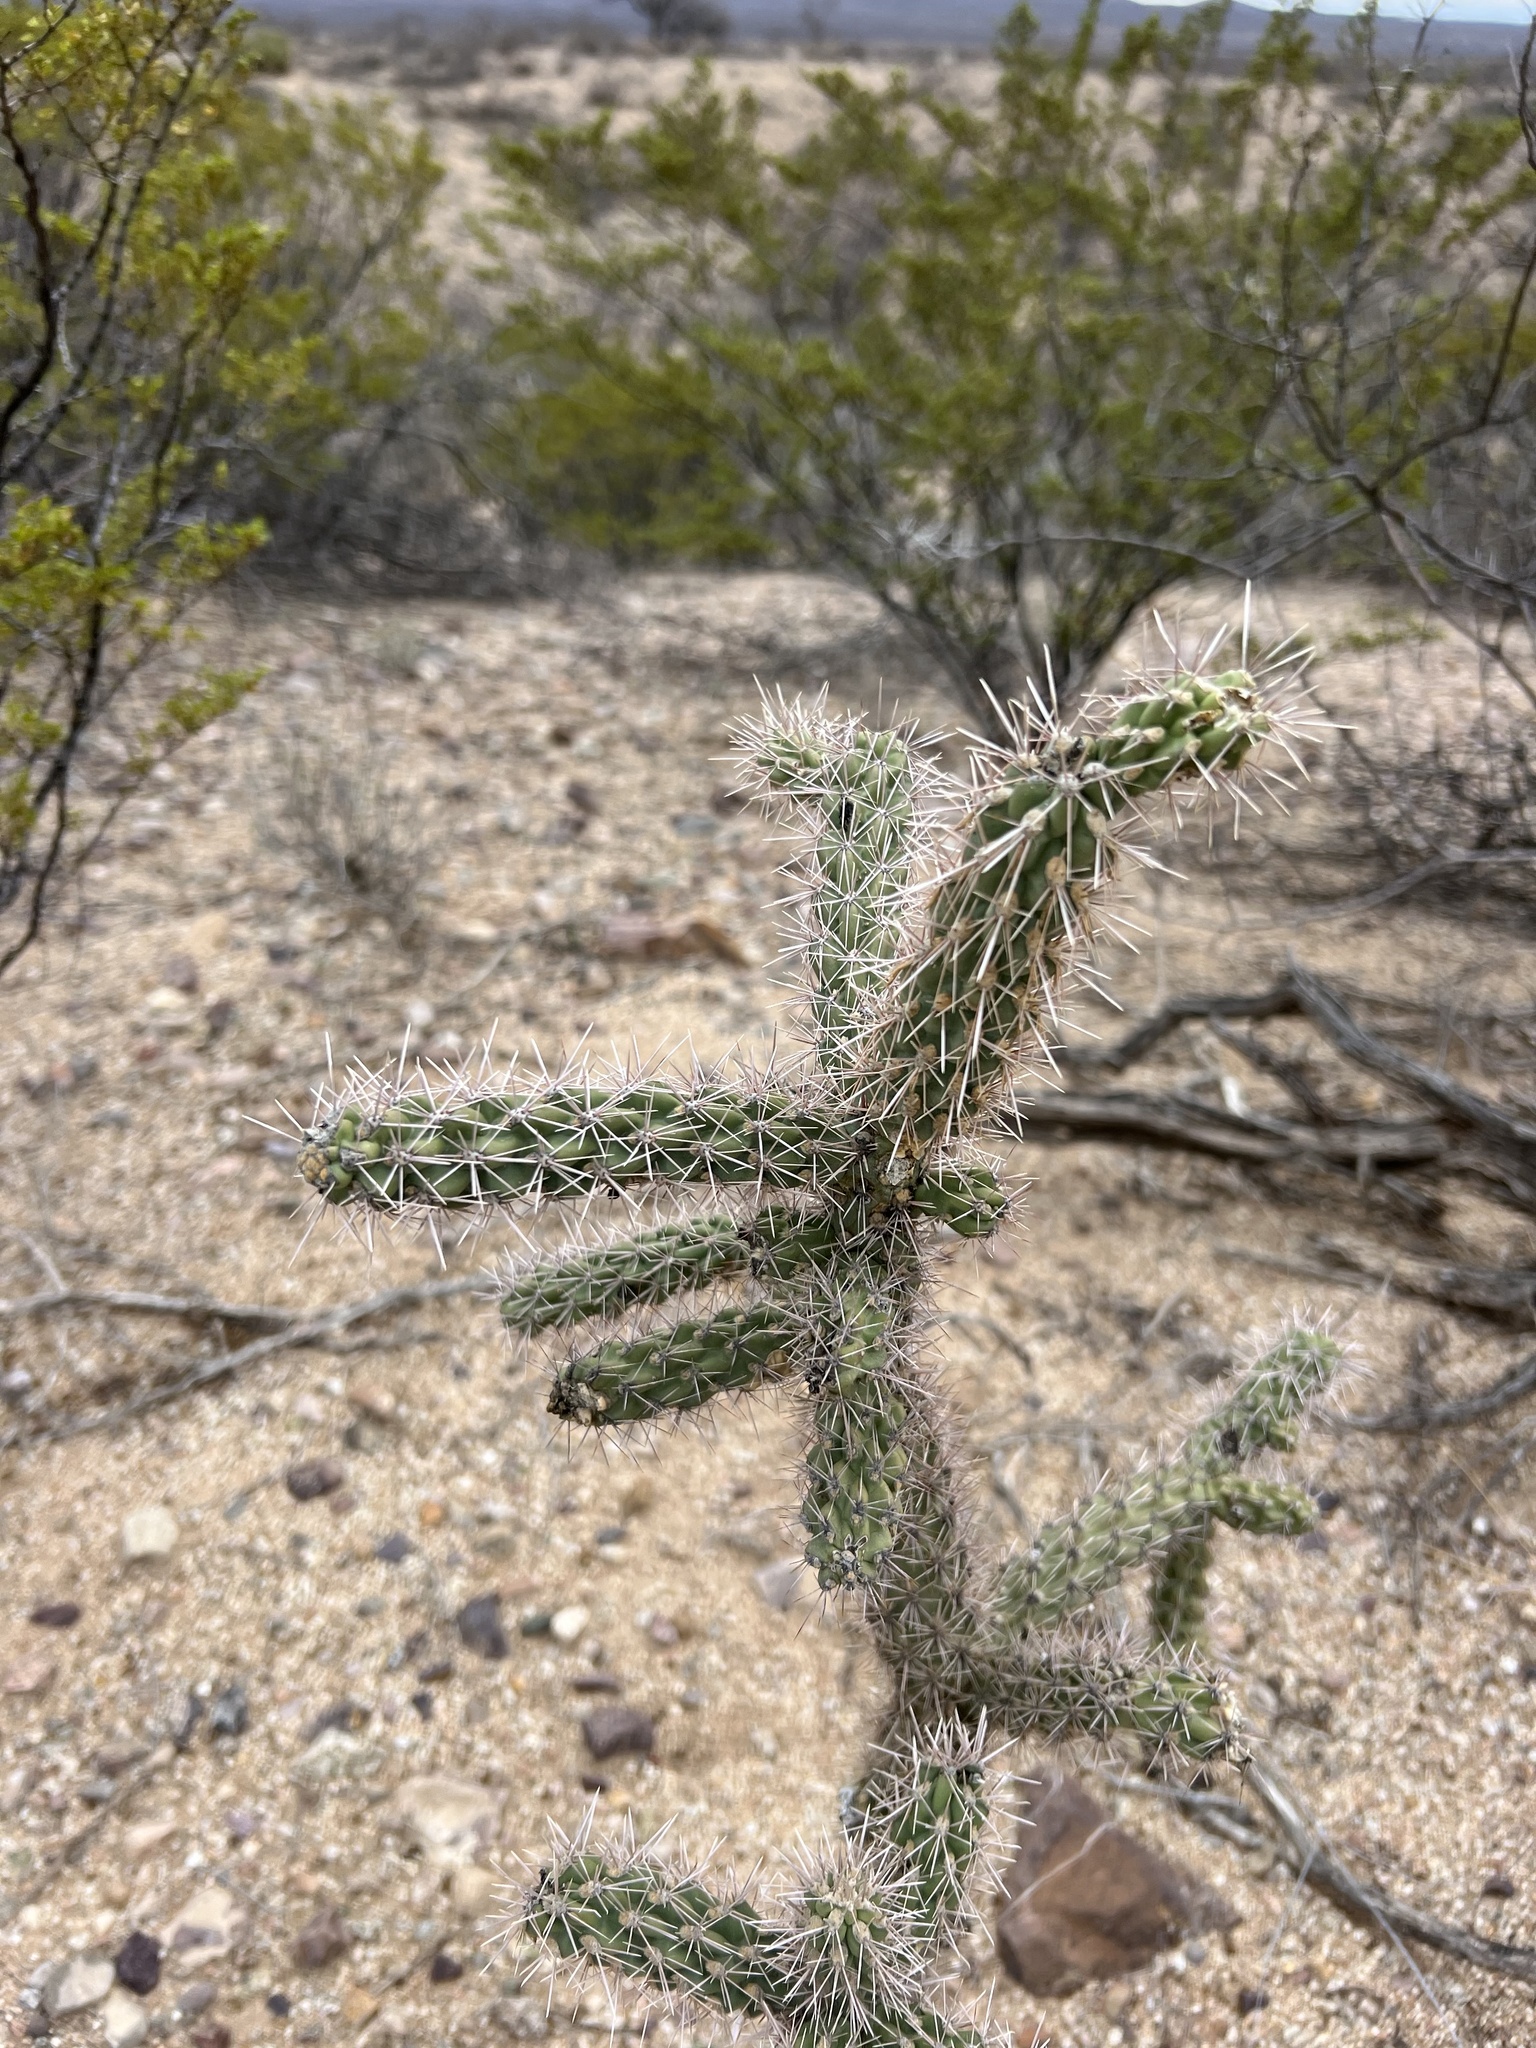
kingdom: Plantae
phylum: Tracheophyta
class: Magnoliopsida
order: Caryophyllales
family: Cactaceae
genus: Cylindropuntia
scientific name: Cylindropuntia imbricata
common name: Candelabrum cactus
